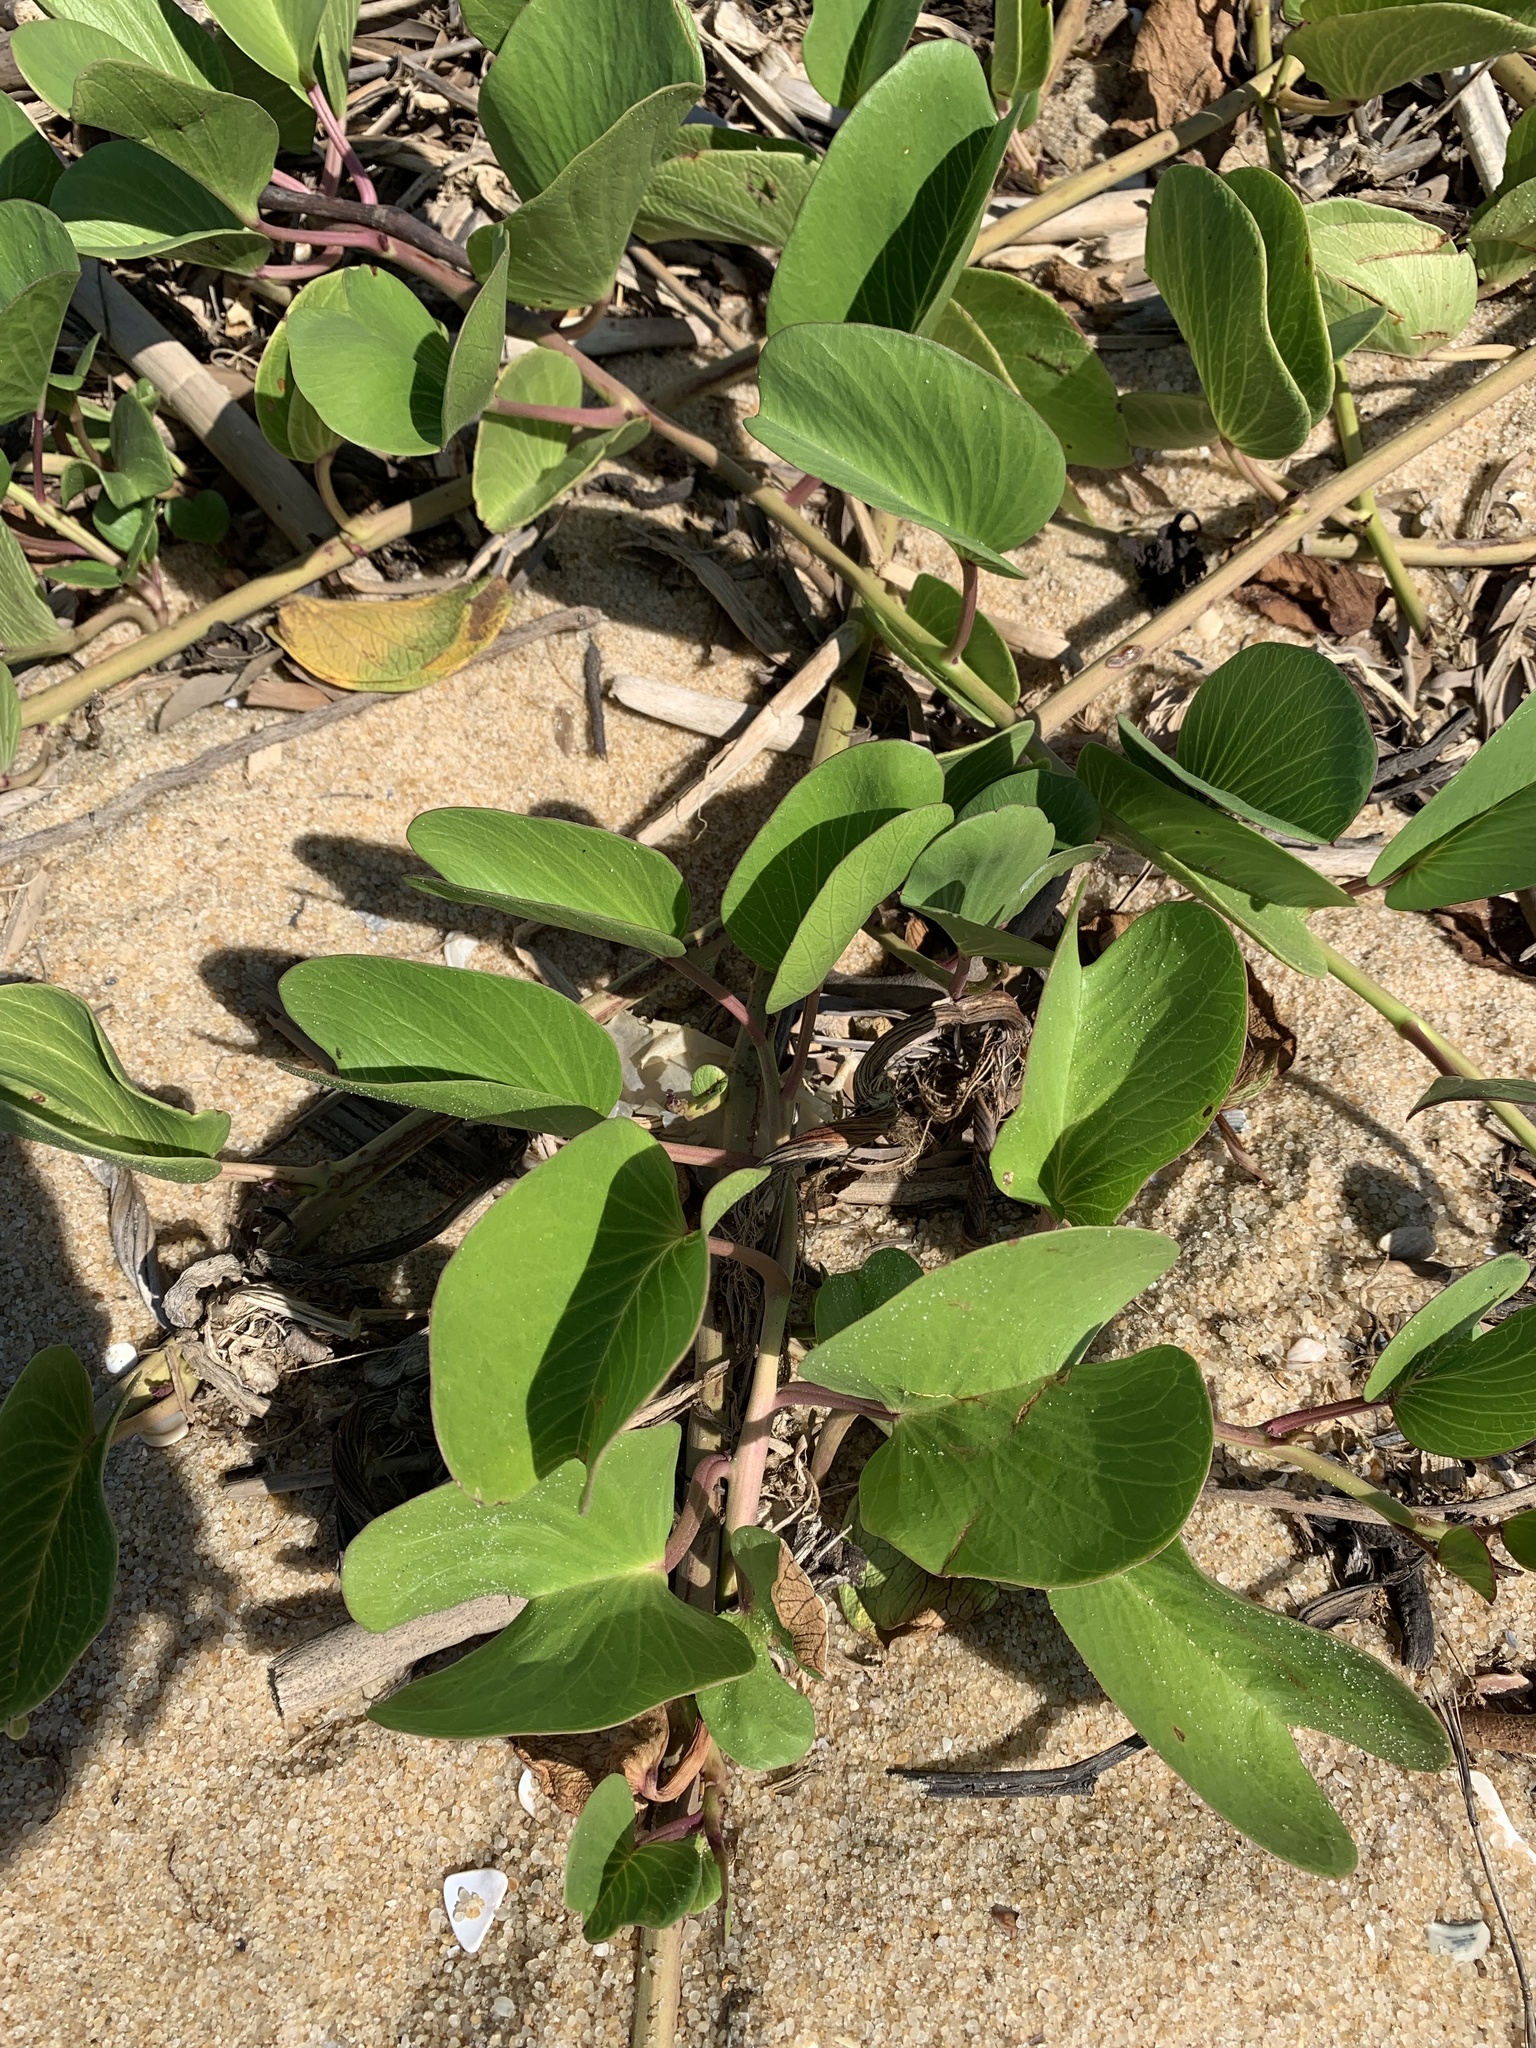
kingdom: Plantae
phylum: Tracheophyta
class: Magnoliopsida
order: Solanales
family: Convolvulaceae
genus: Ipomoea
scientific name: Ipomoea pes-caprae
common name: Beach morning glory
